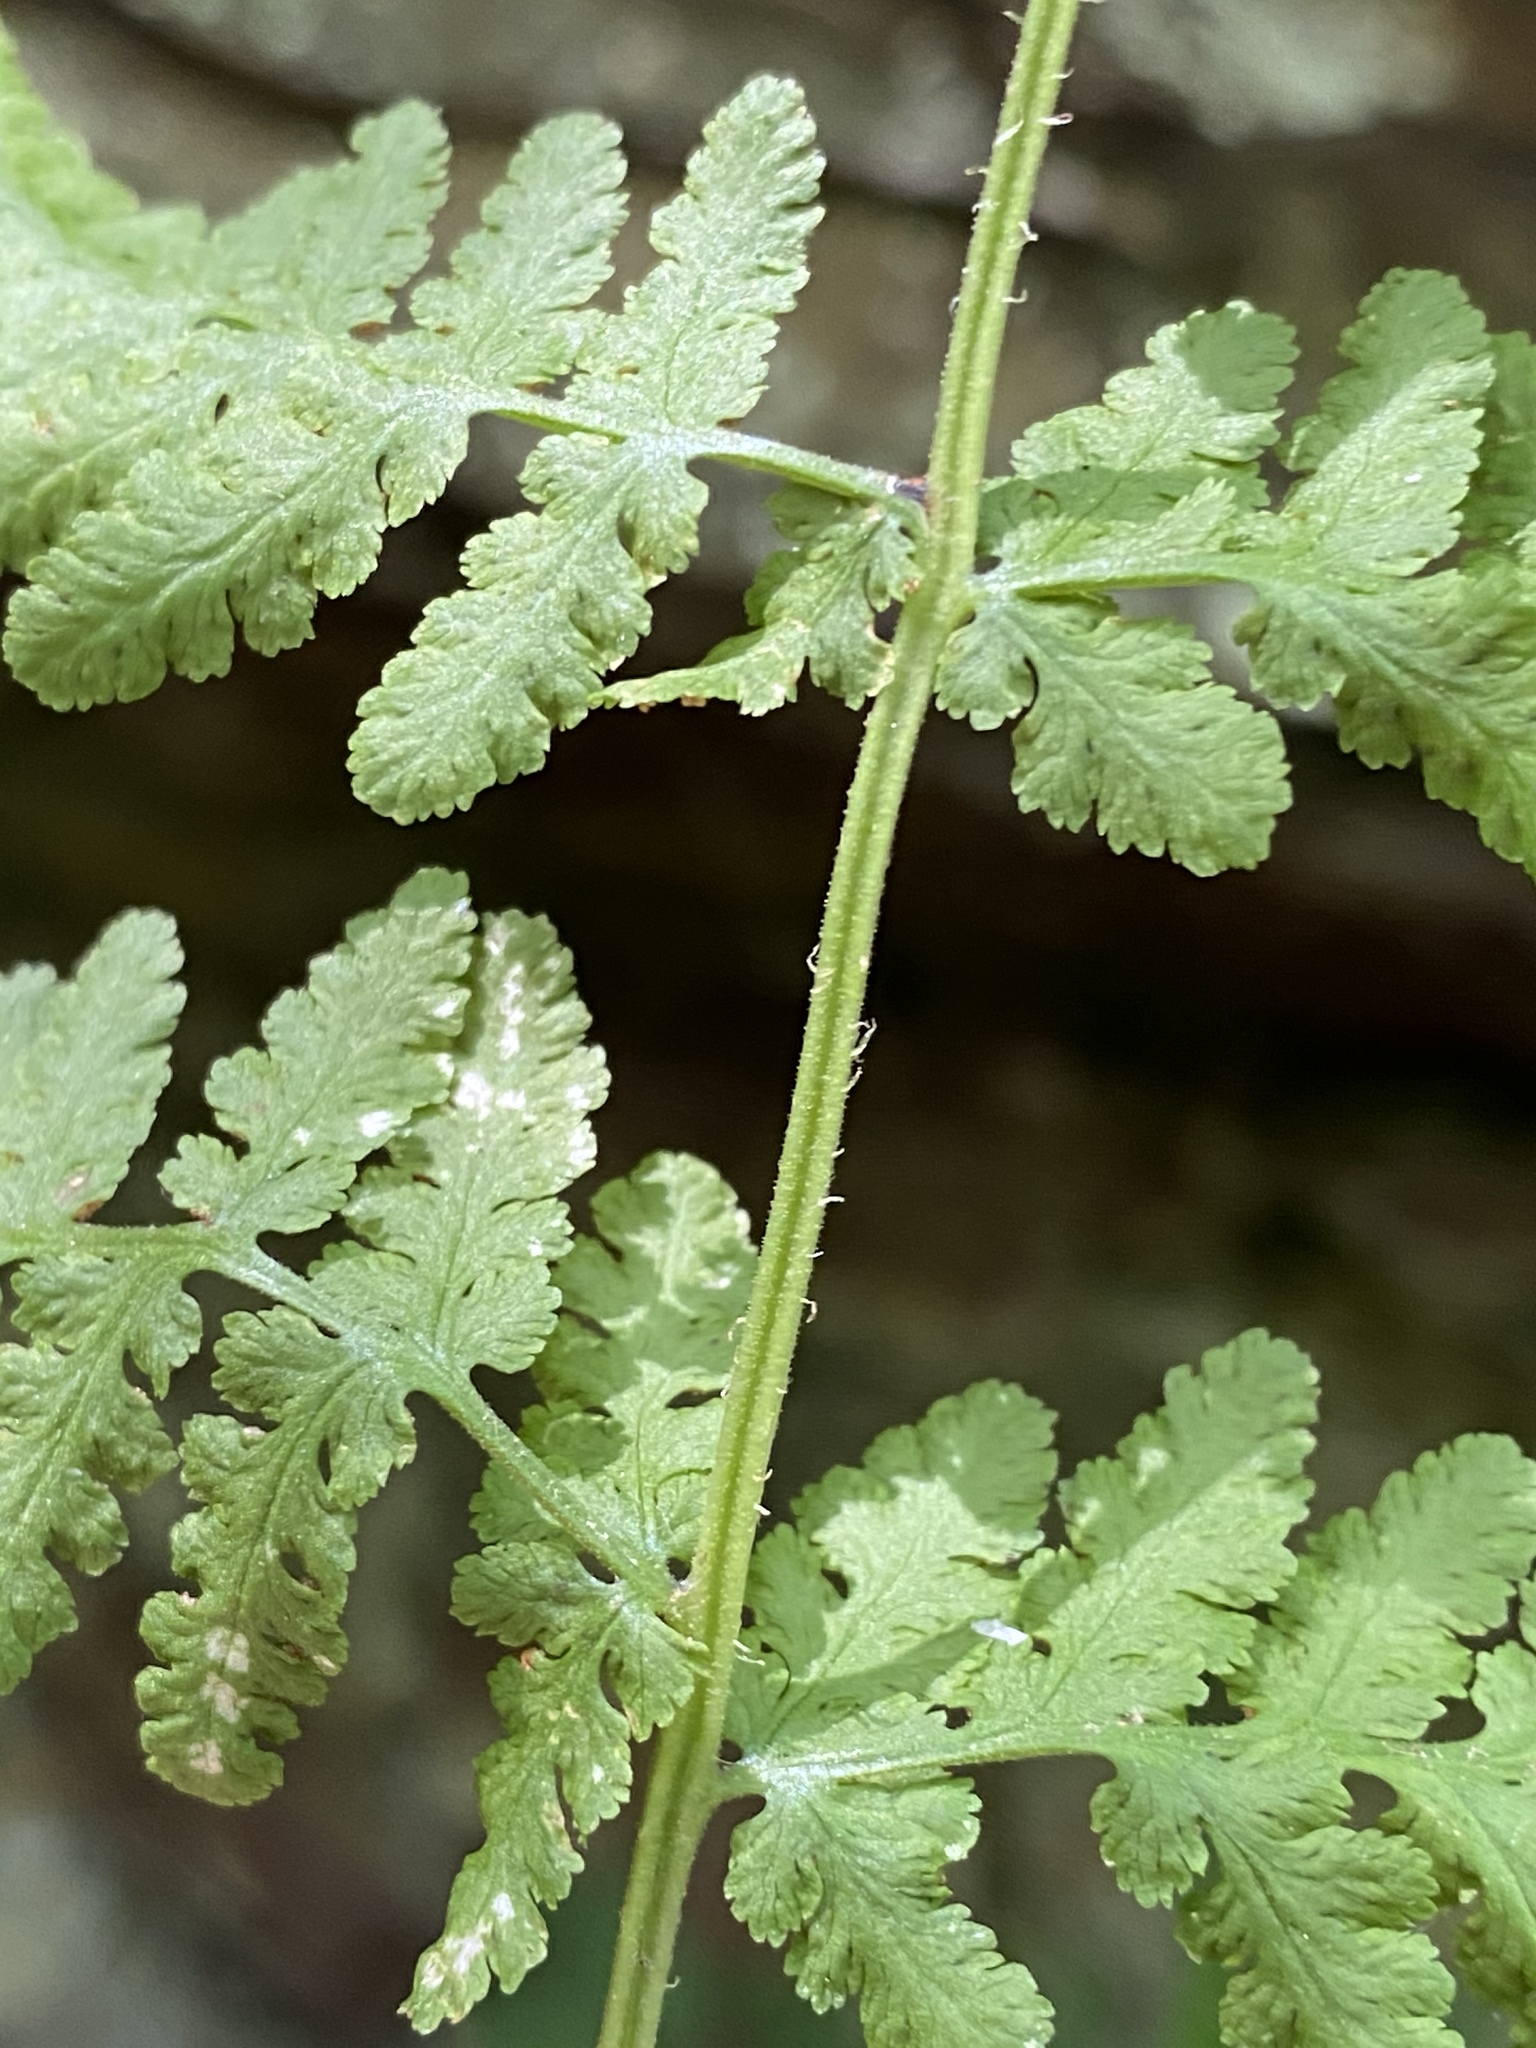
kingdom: Plantae
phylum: Tracheophyta
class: Polypodiopsida
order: Polypodiales
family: Woodsiaceae
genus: Physematium
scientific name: Physematium obtusum
